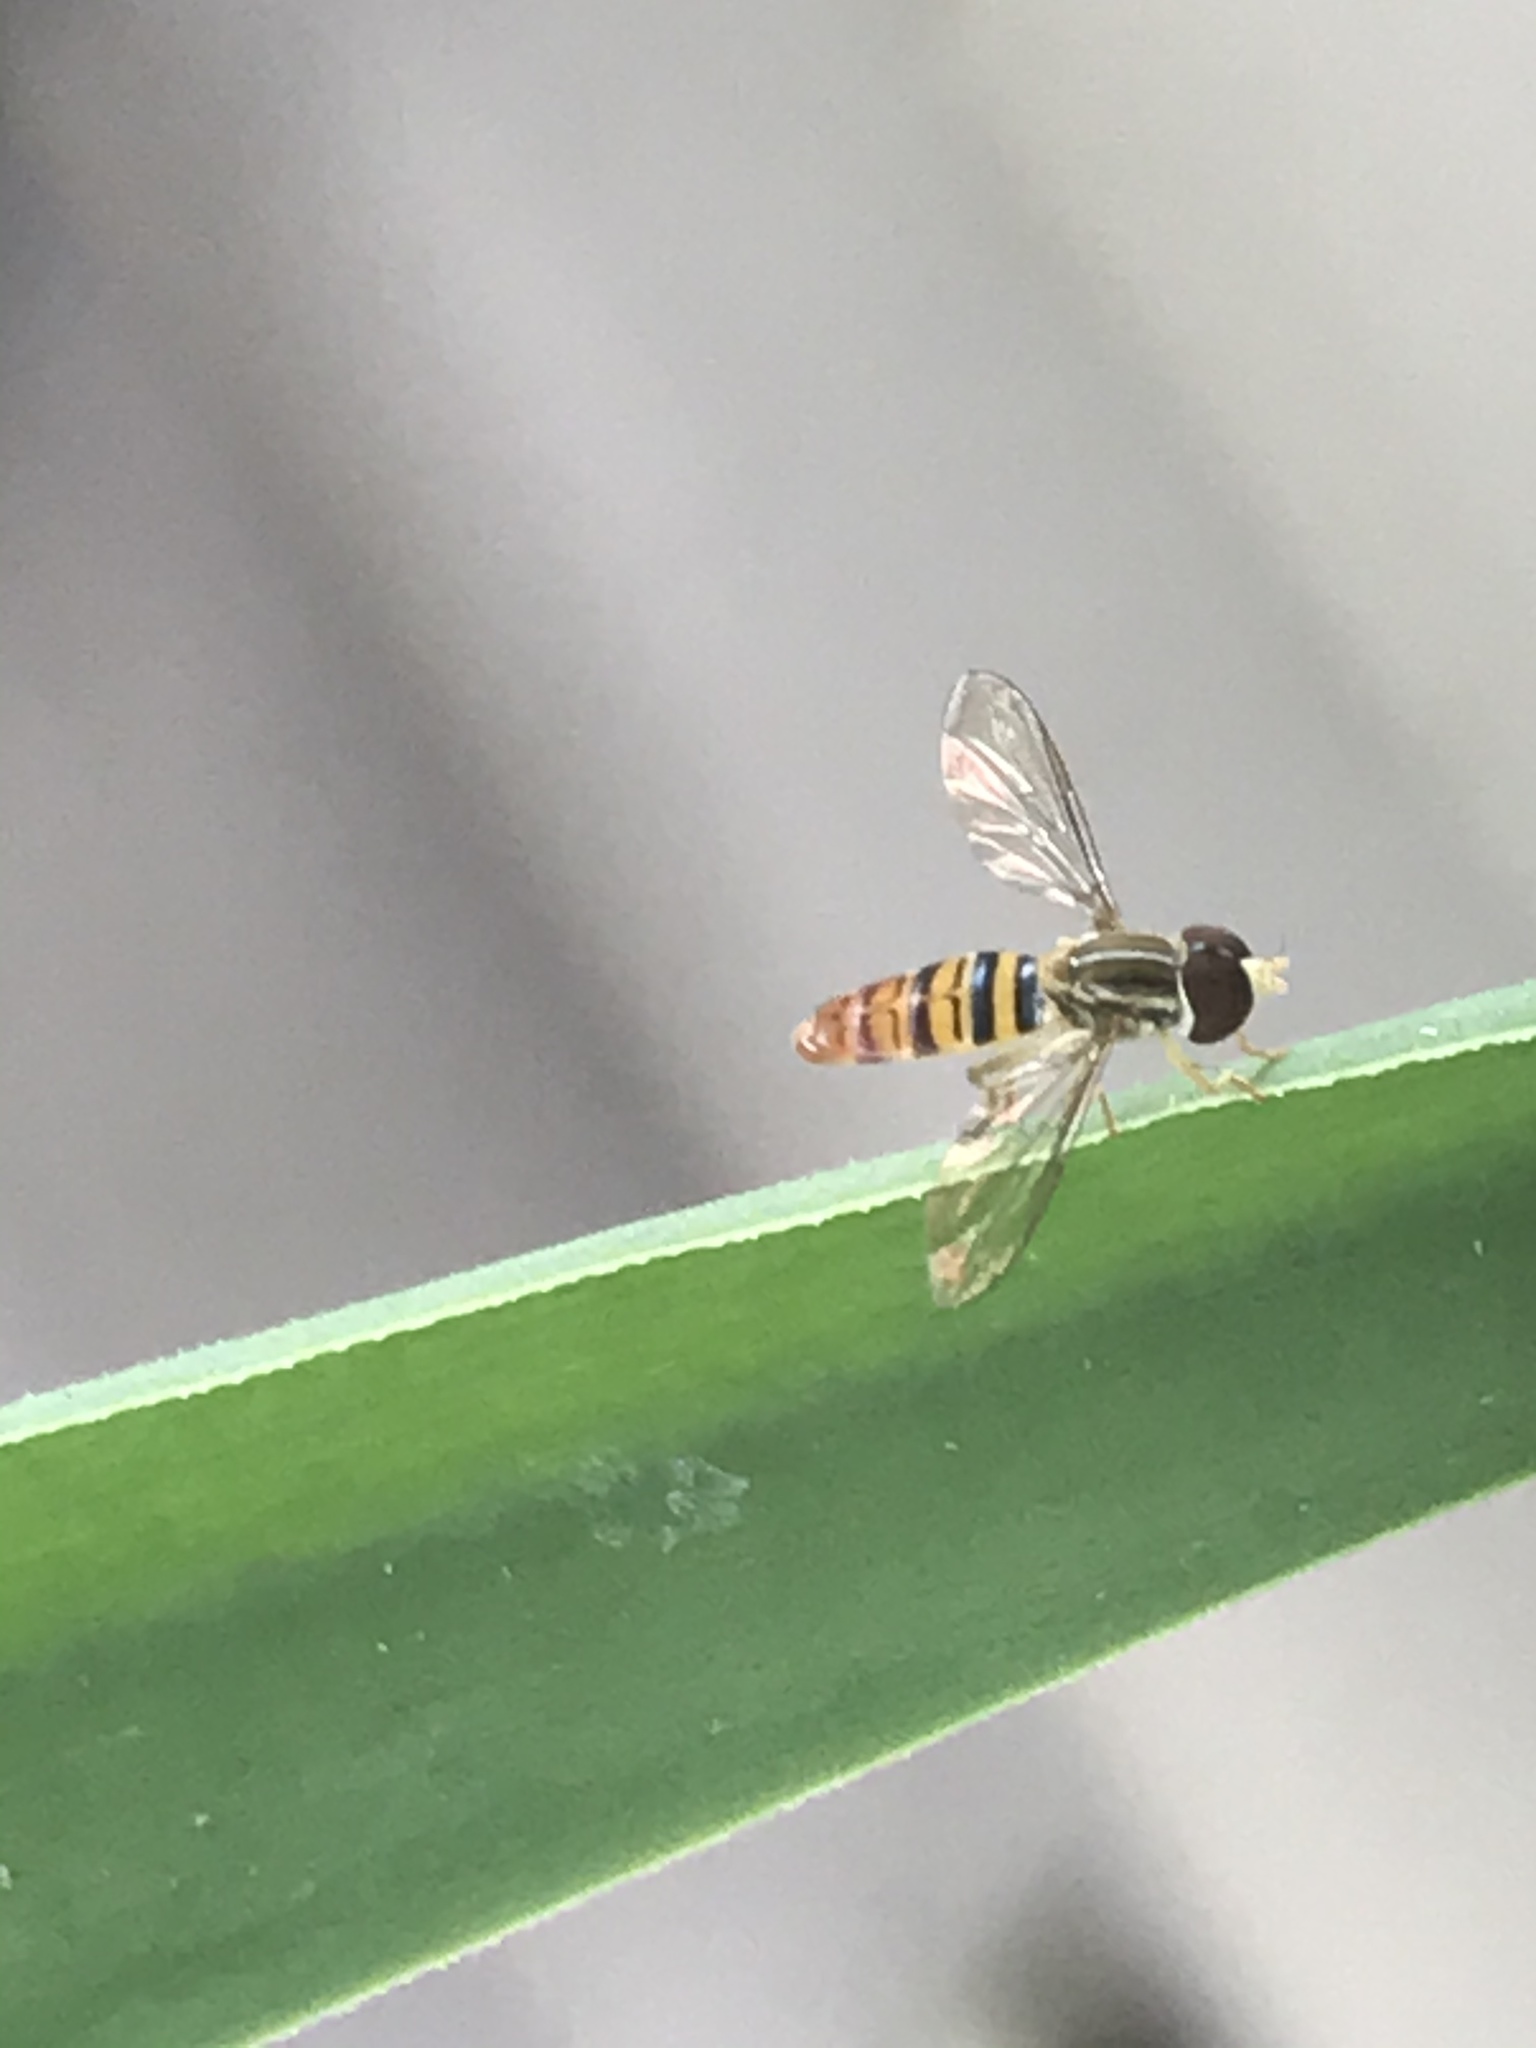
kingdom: Animalia
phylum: Arthropoda
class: Insecta
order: Diptera
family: Syrphidae
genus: Toxomerus
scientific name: Toxomerus politus
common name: Maize calligrapher
